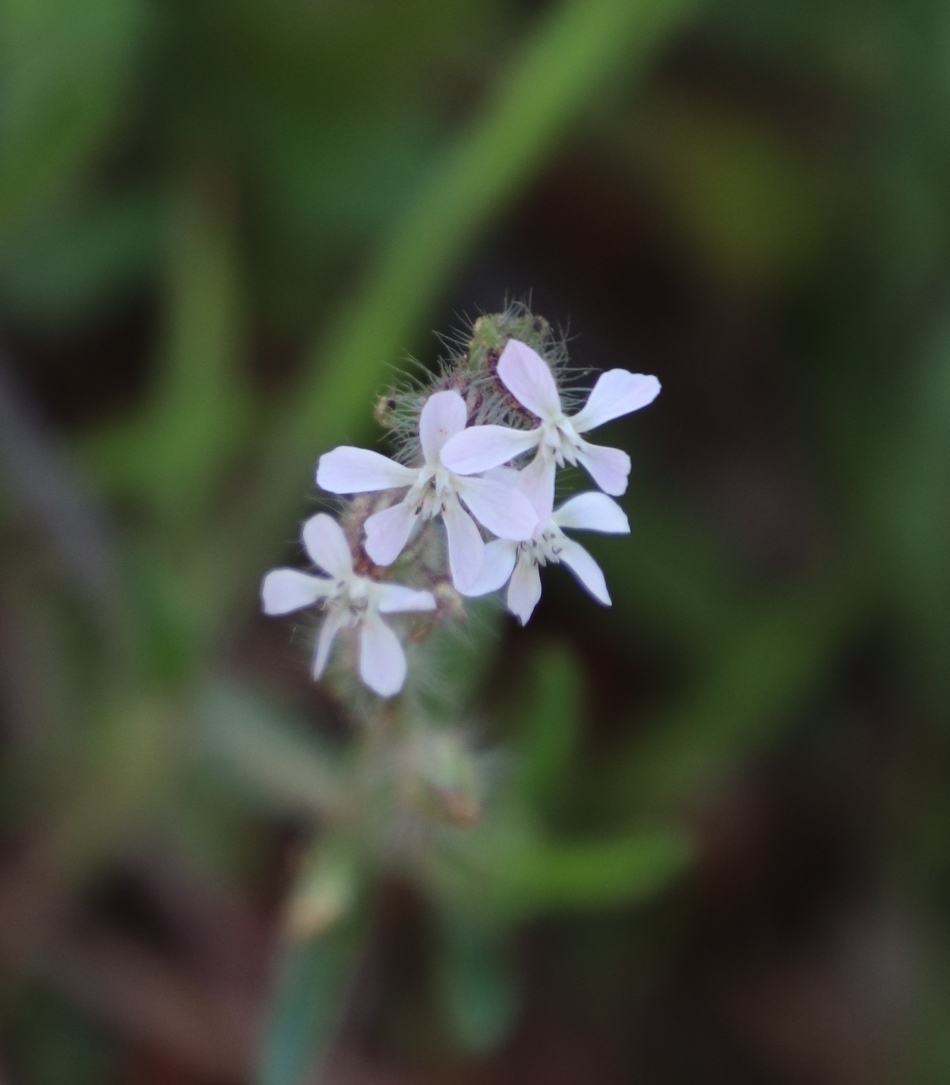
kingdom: Plantae
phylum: Tracheophyta
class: Magnoliopsida
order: Caryophyllales
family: Caryophyllaceae
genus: Silene
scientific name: Silene gallica
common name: Small-flowered catchfly
